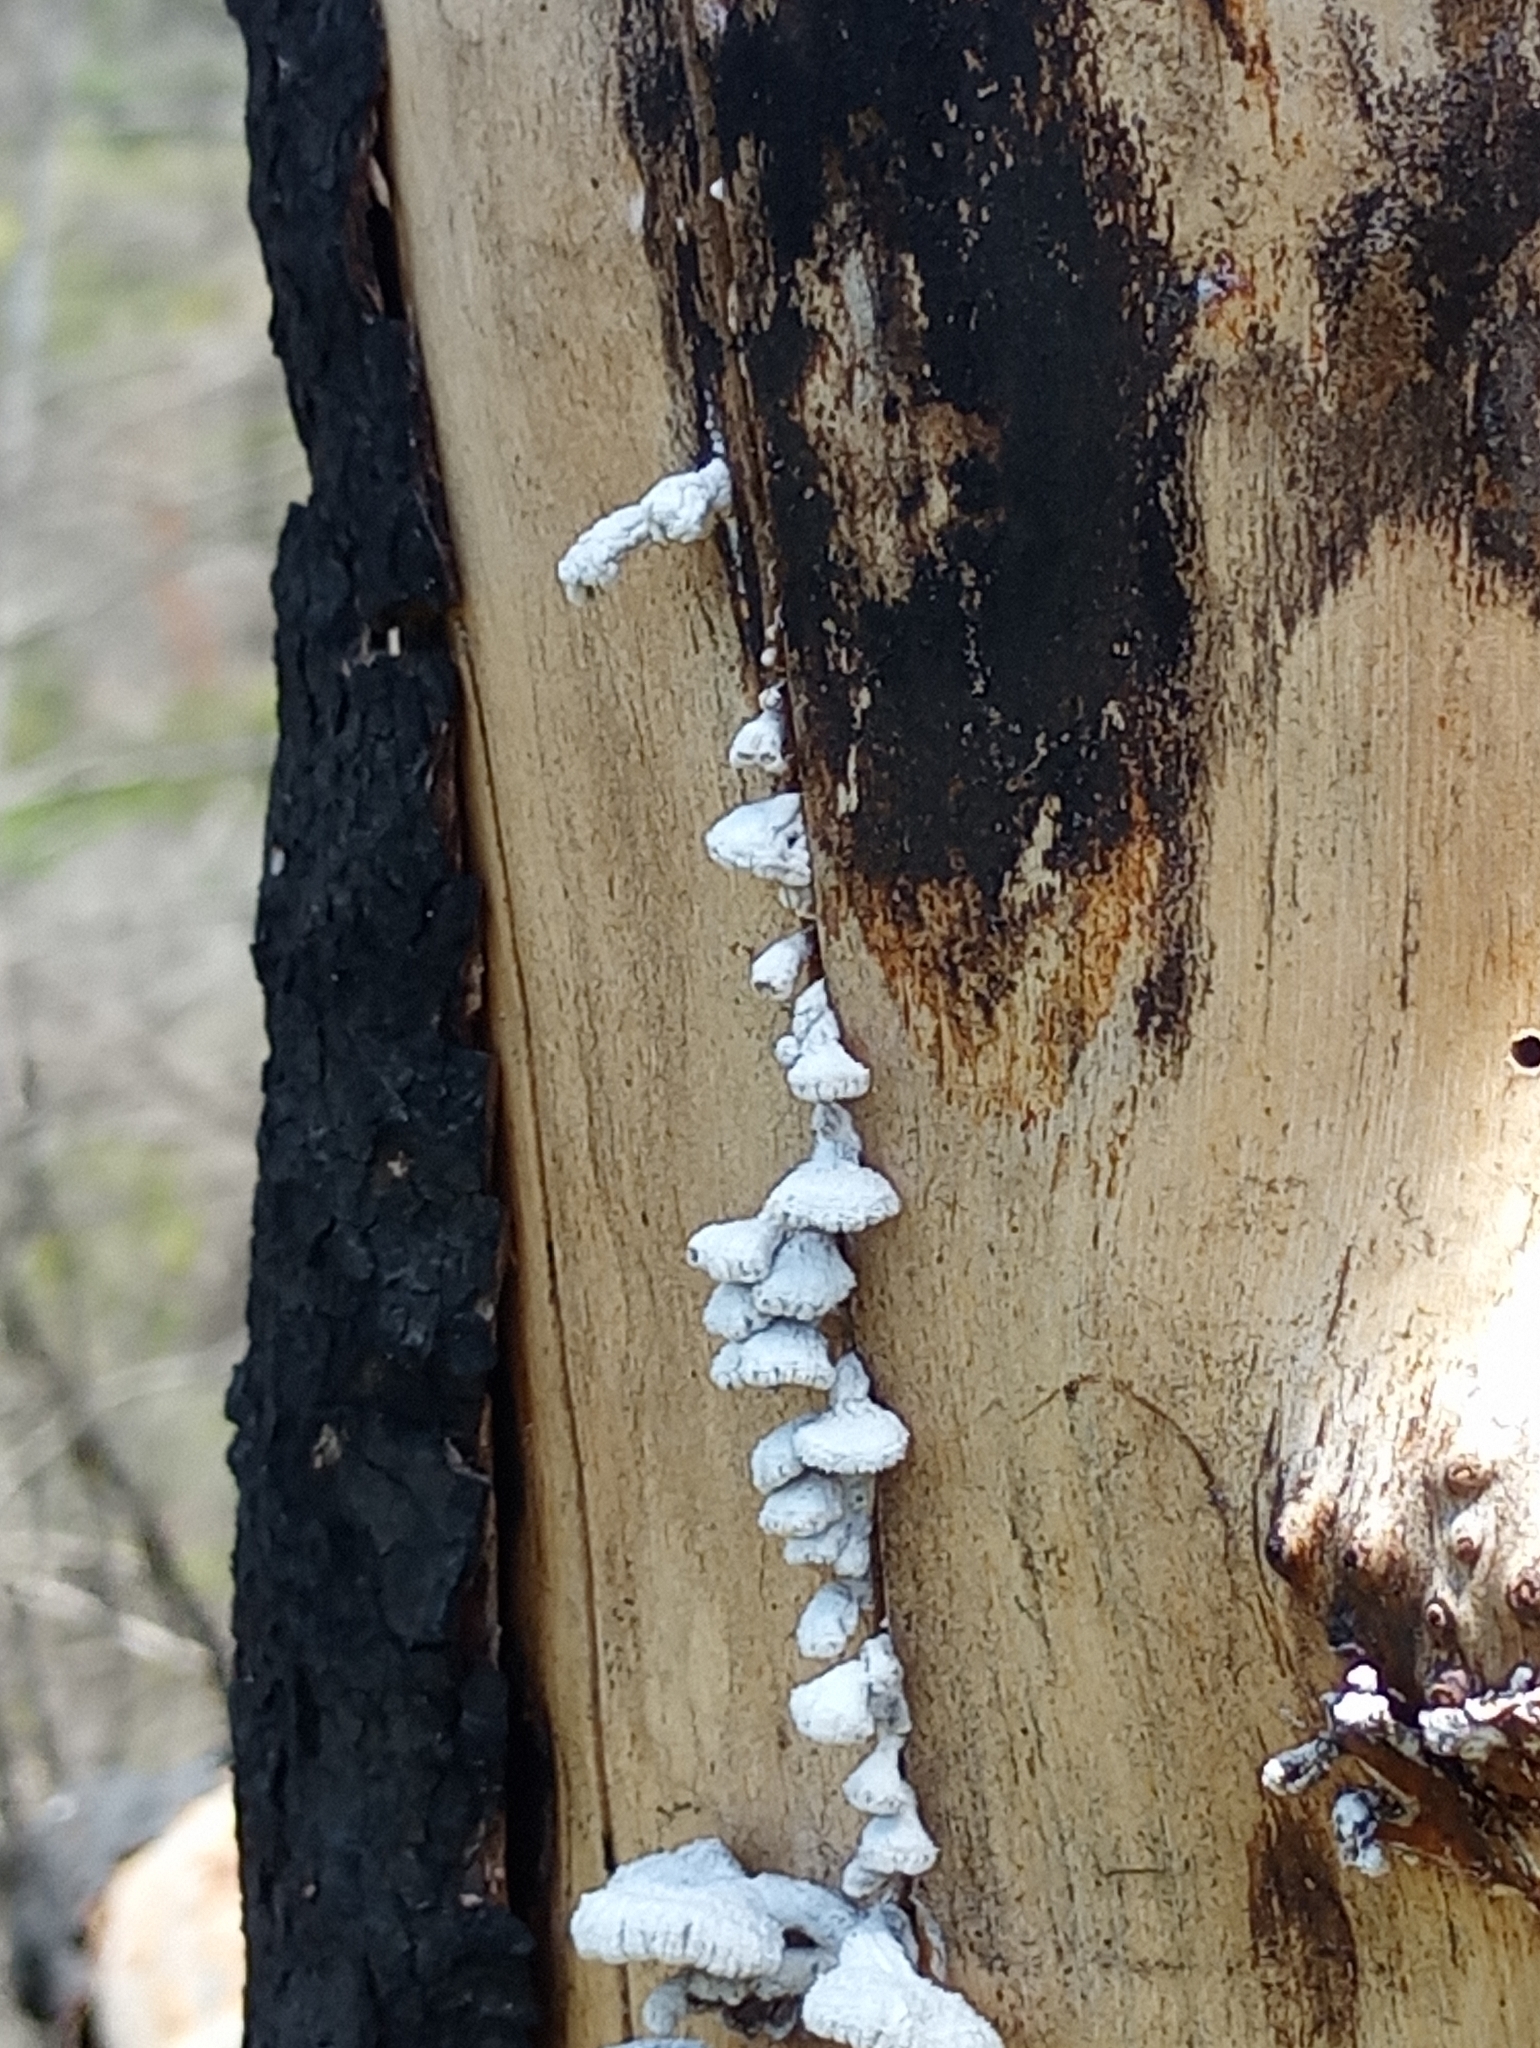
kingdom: Fungi
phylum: Basidiomycota
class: Agaricomycetes
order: Agaricales
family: Schizophyllaceae
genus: Schizophyllum
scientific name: Schizophyllum commune
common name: Common porecrust
